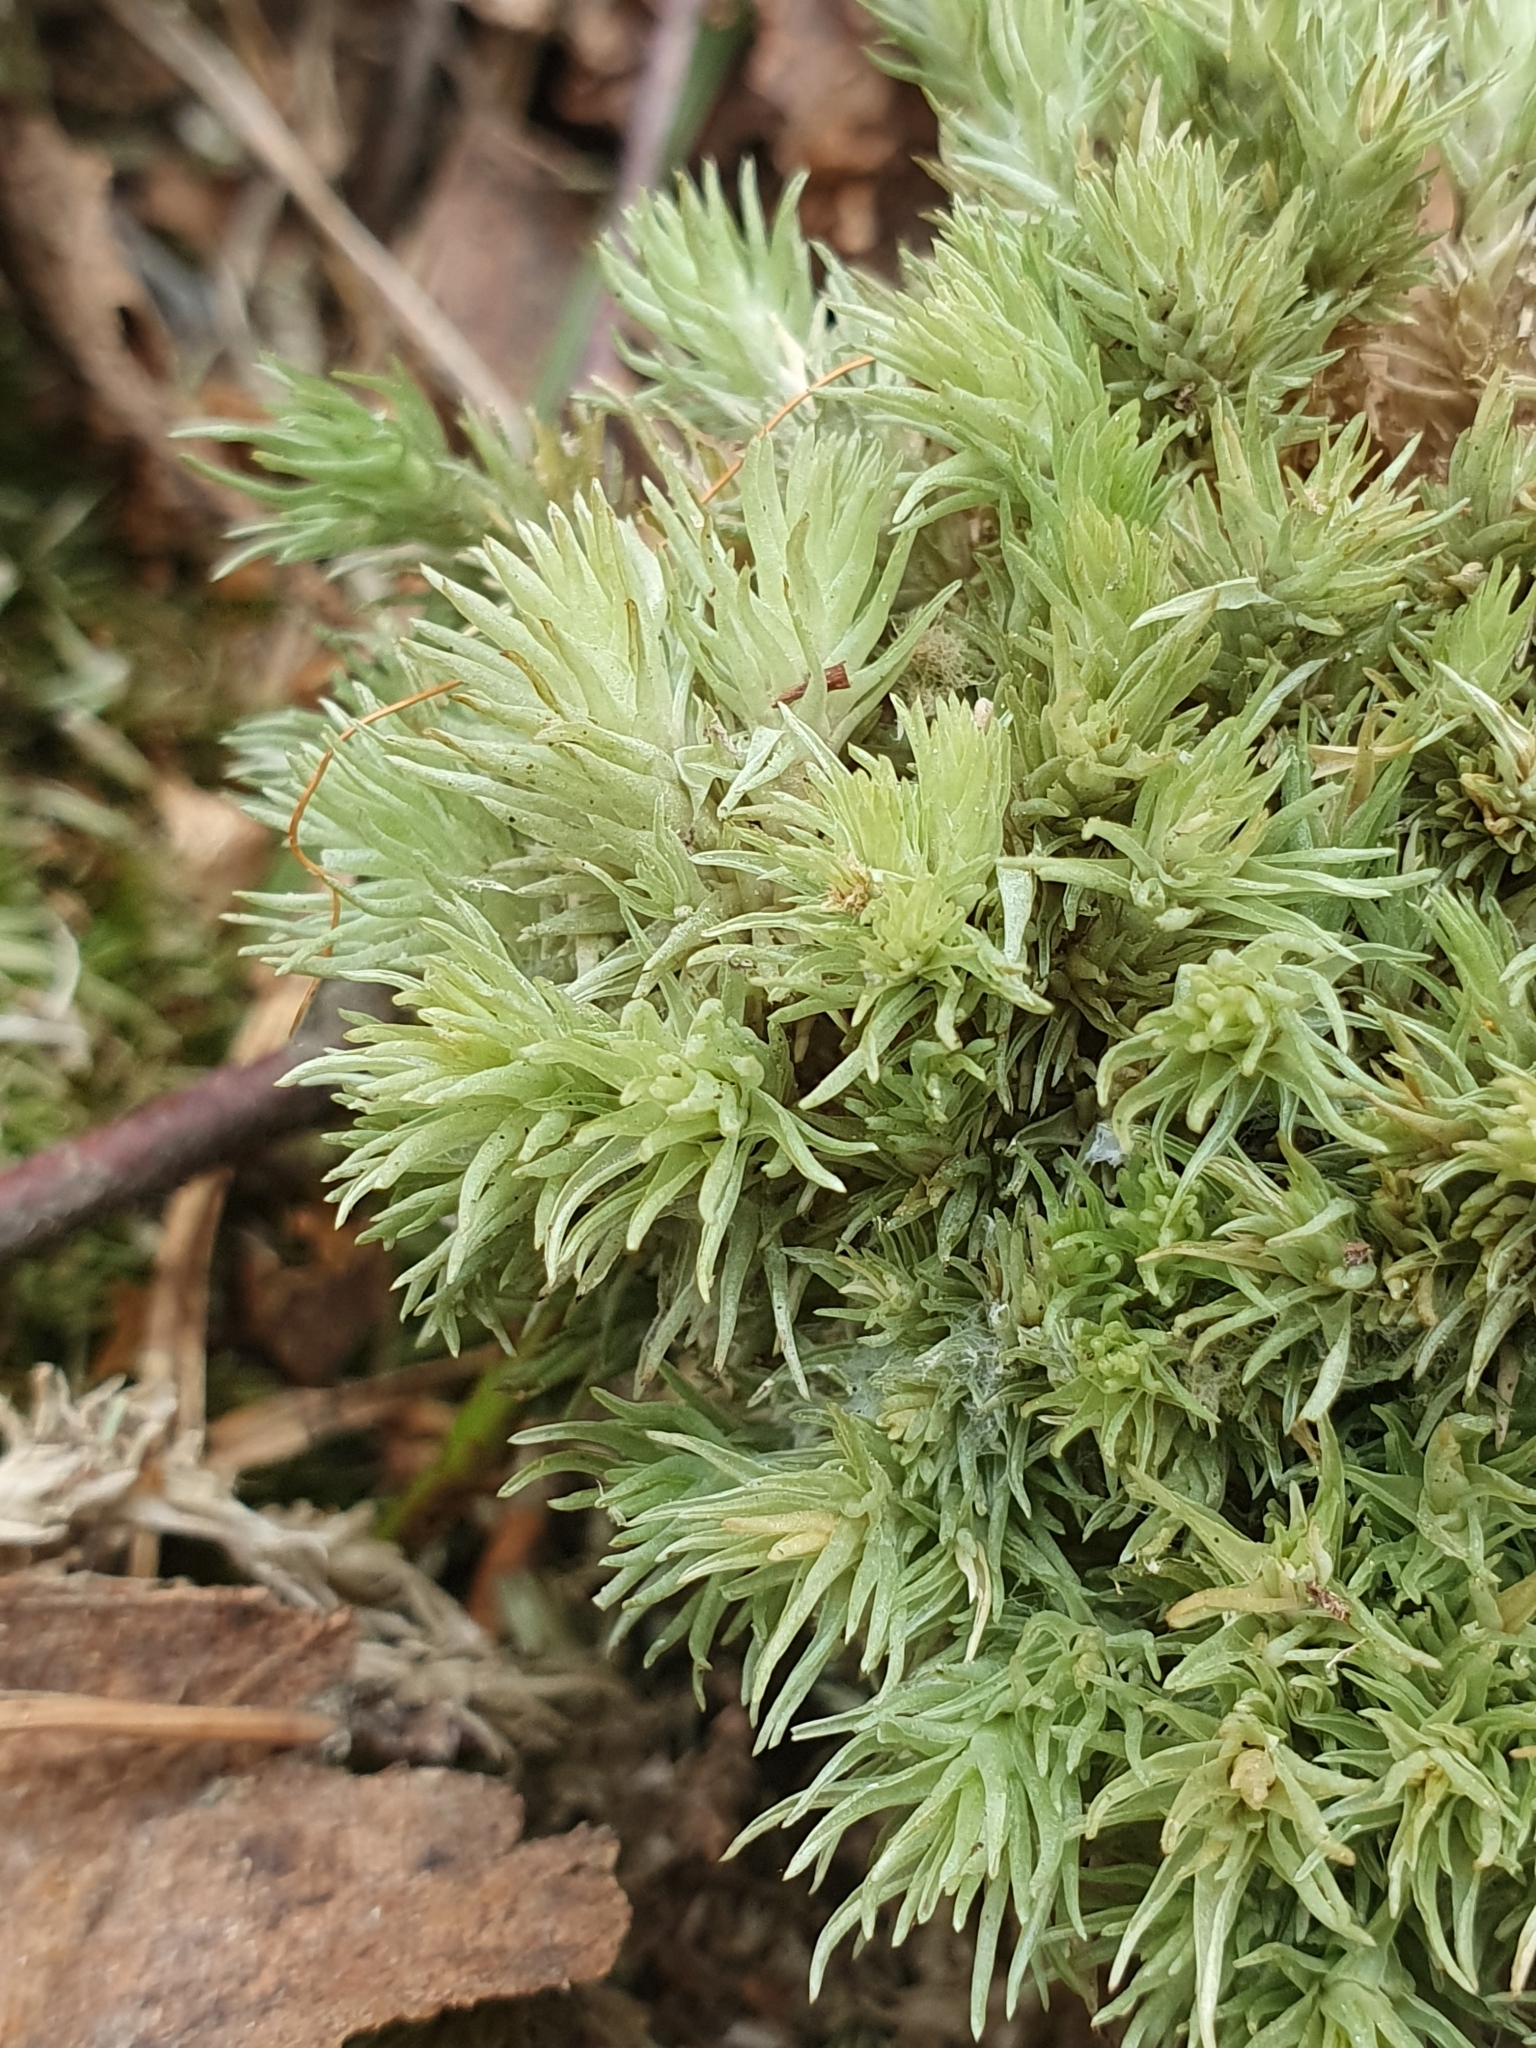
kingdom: Plantae
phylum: Bryophyta
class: Bryopsida
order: Dicranales
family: Leucobryaceae
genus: Leucobryum
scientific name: Leucobryum glaucum
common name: Large white-moss
